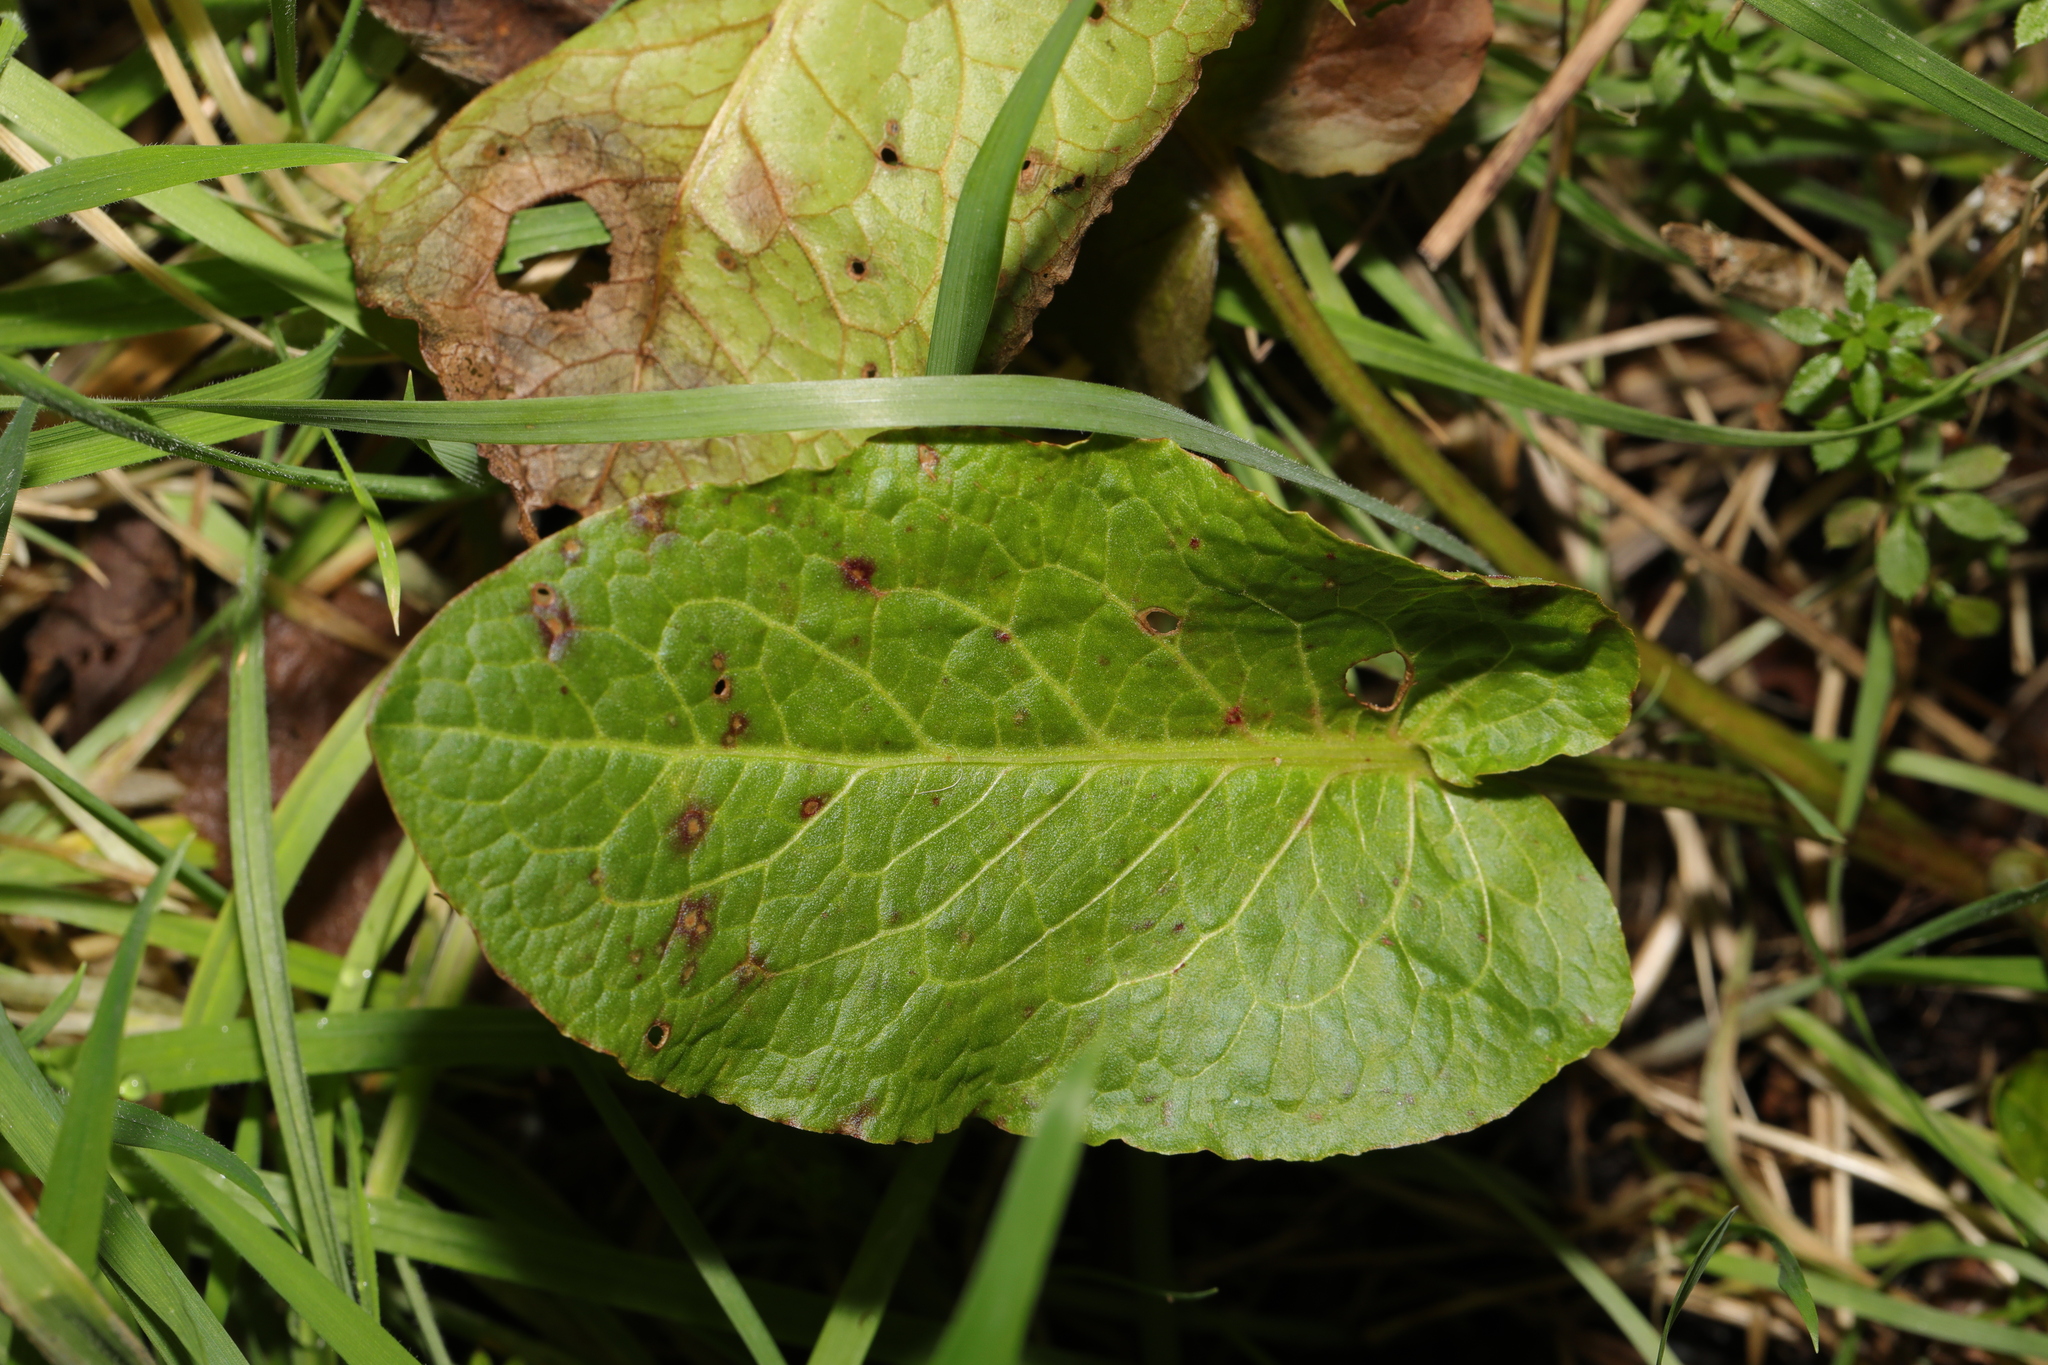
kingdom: Plantae
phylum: Tracheophyta
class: Magnoliopsida
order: Caryophyllales
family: Polygonaceae
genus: Rumex
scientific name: Rumex obtusifolius
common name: Bitter dock
